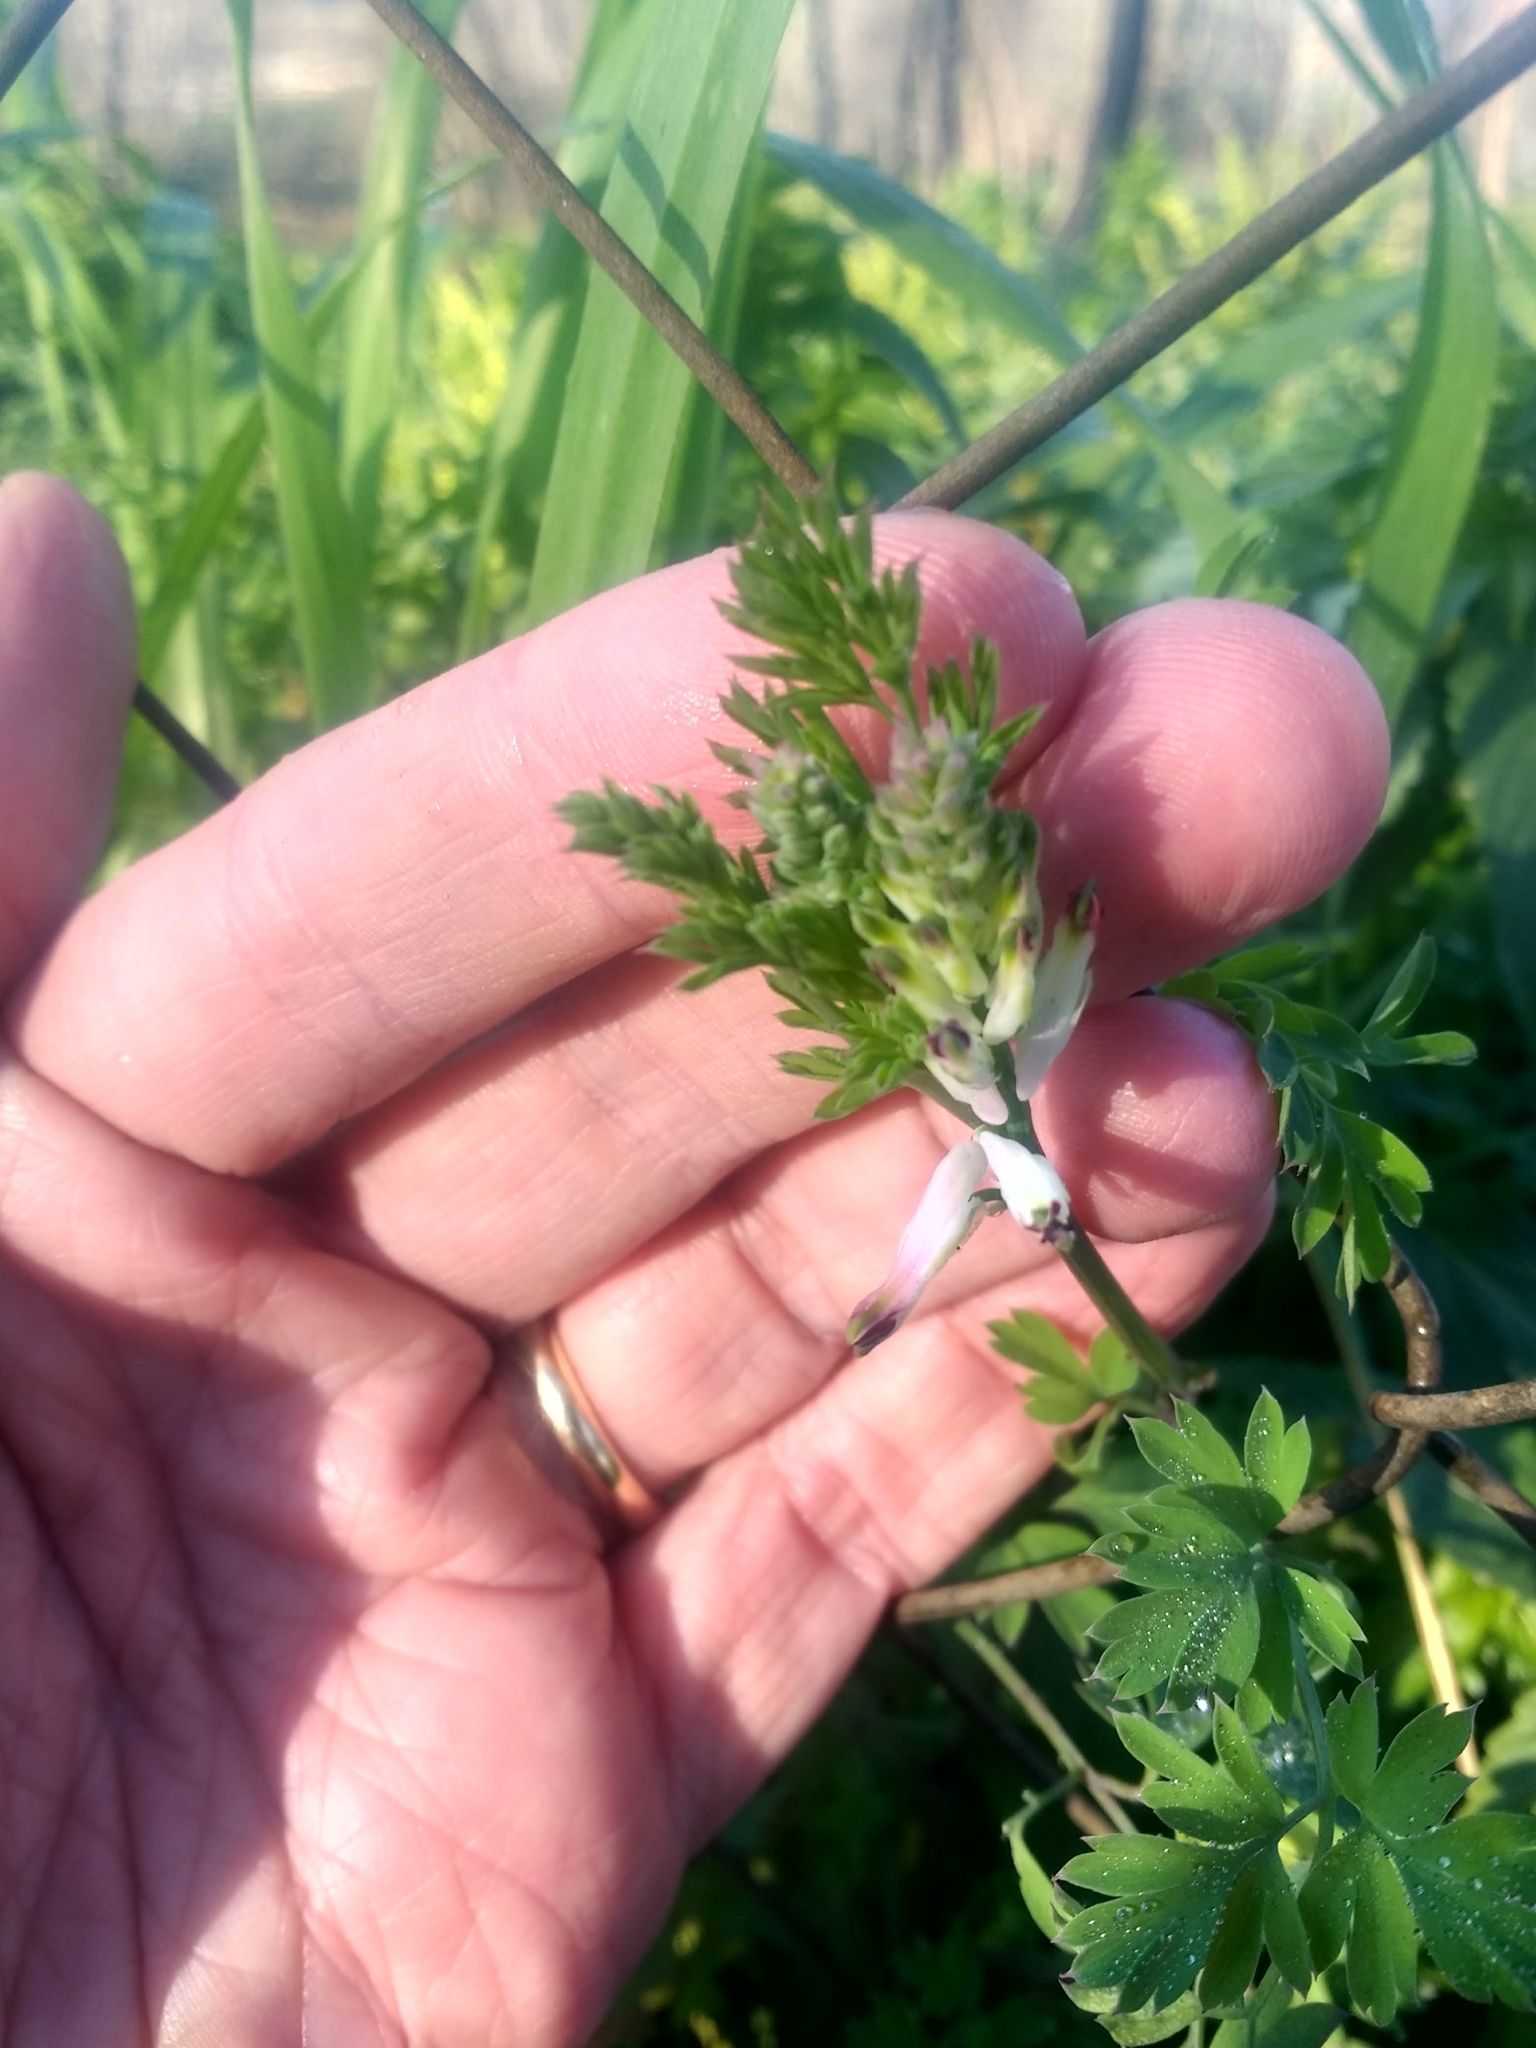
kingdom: Plantae
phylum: Tracheophyta
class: Magnoliopsida
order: Ranunculales
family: Papaveraceae
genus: Fumaria
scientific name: Fumaria capreolata
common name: White ramping-fumitory
